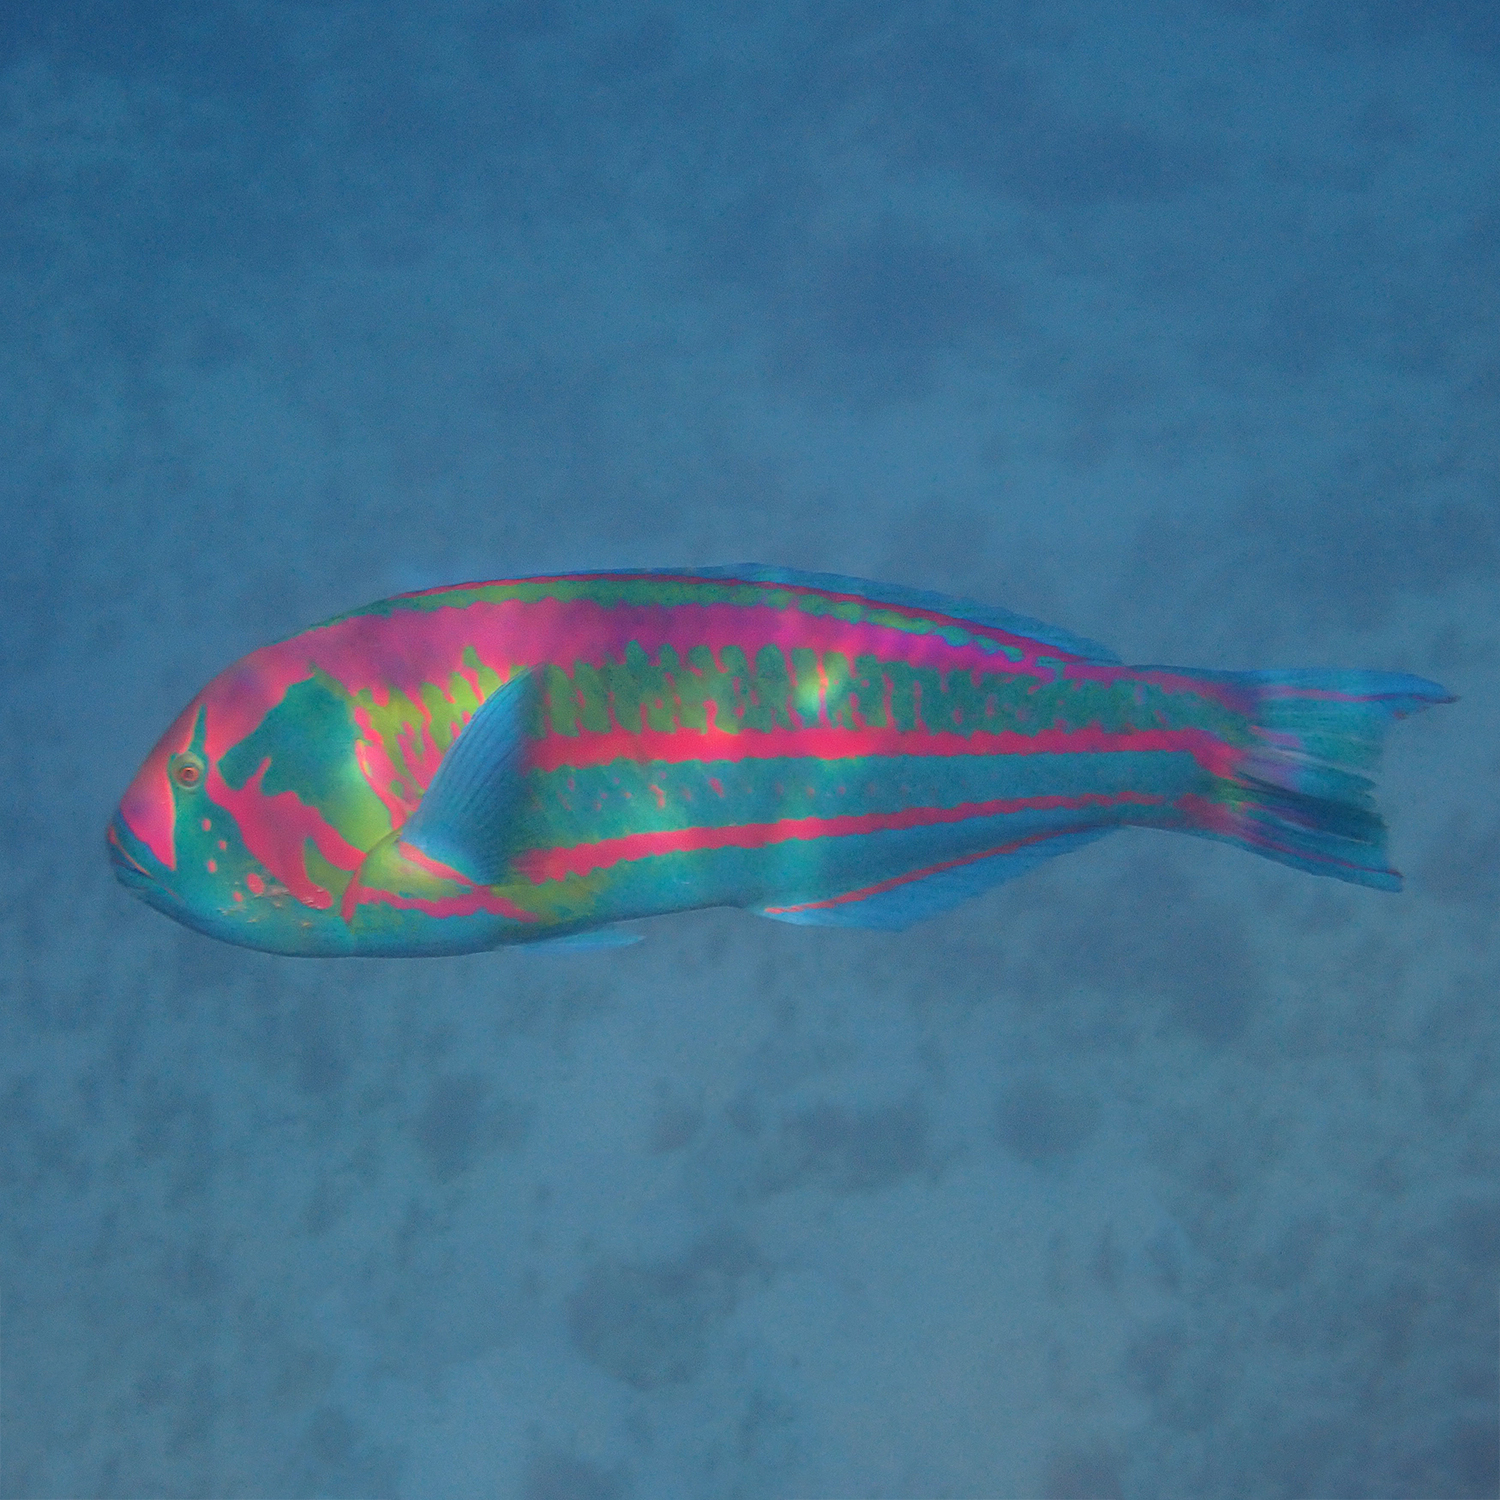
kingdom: Animalia
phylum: Chordata
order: Perciformes
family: Labridae
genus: Thalassoma
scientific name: Thalassoma purpureum
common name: Parrotfish
